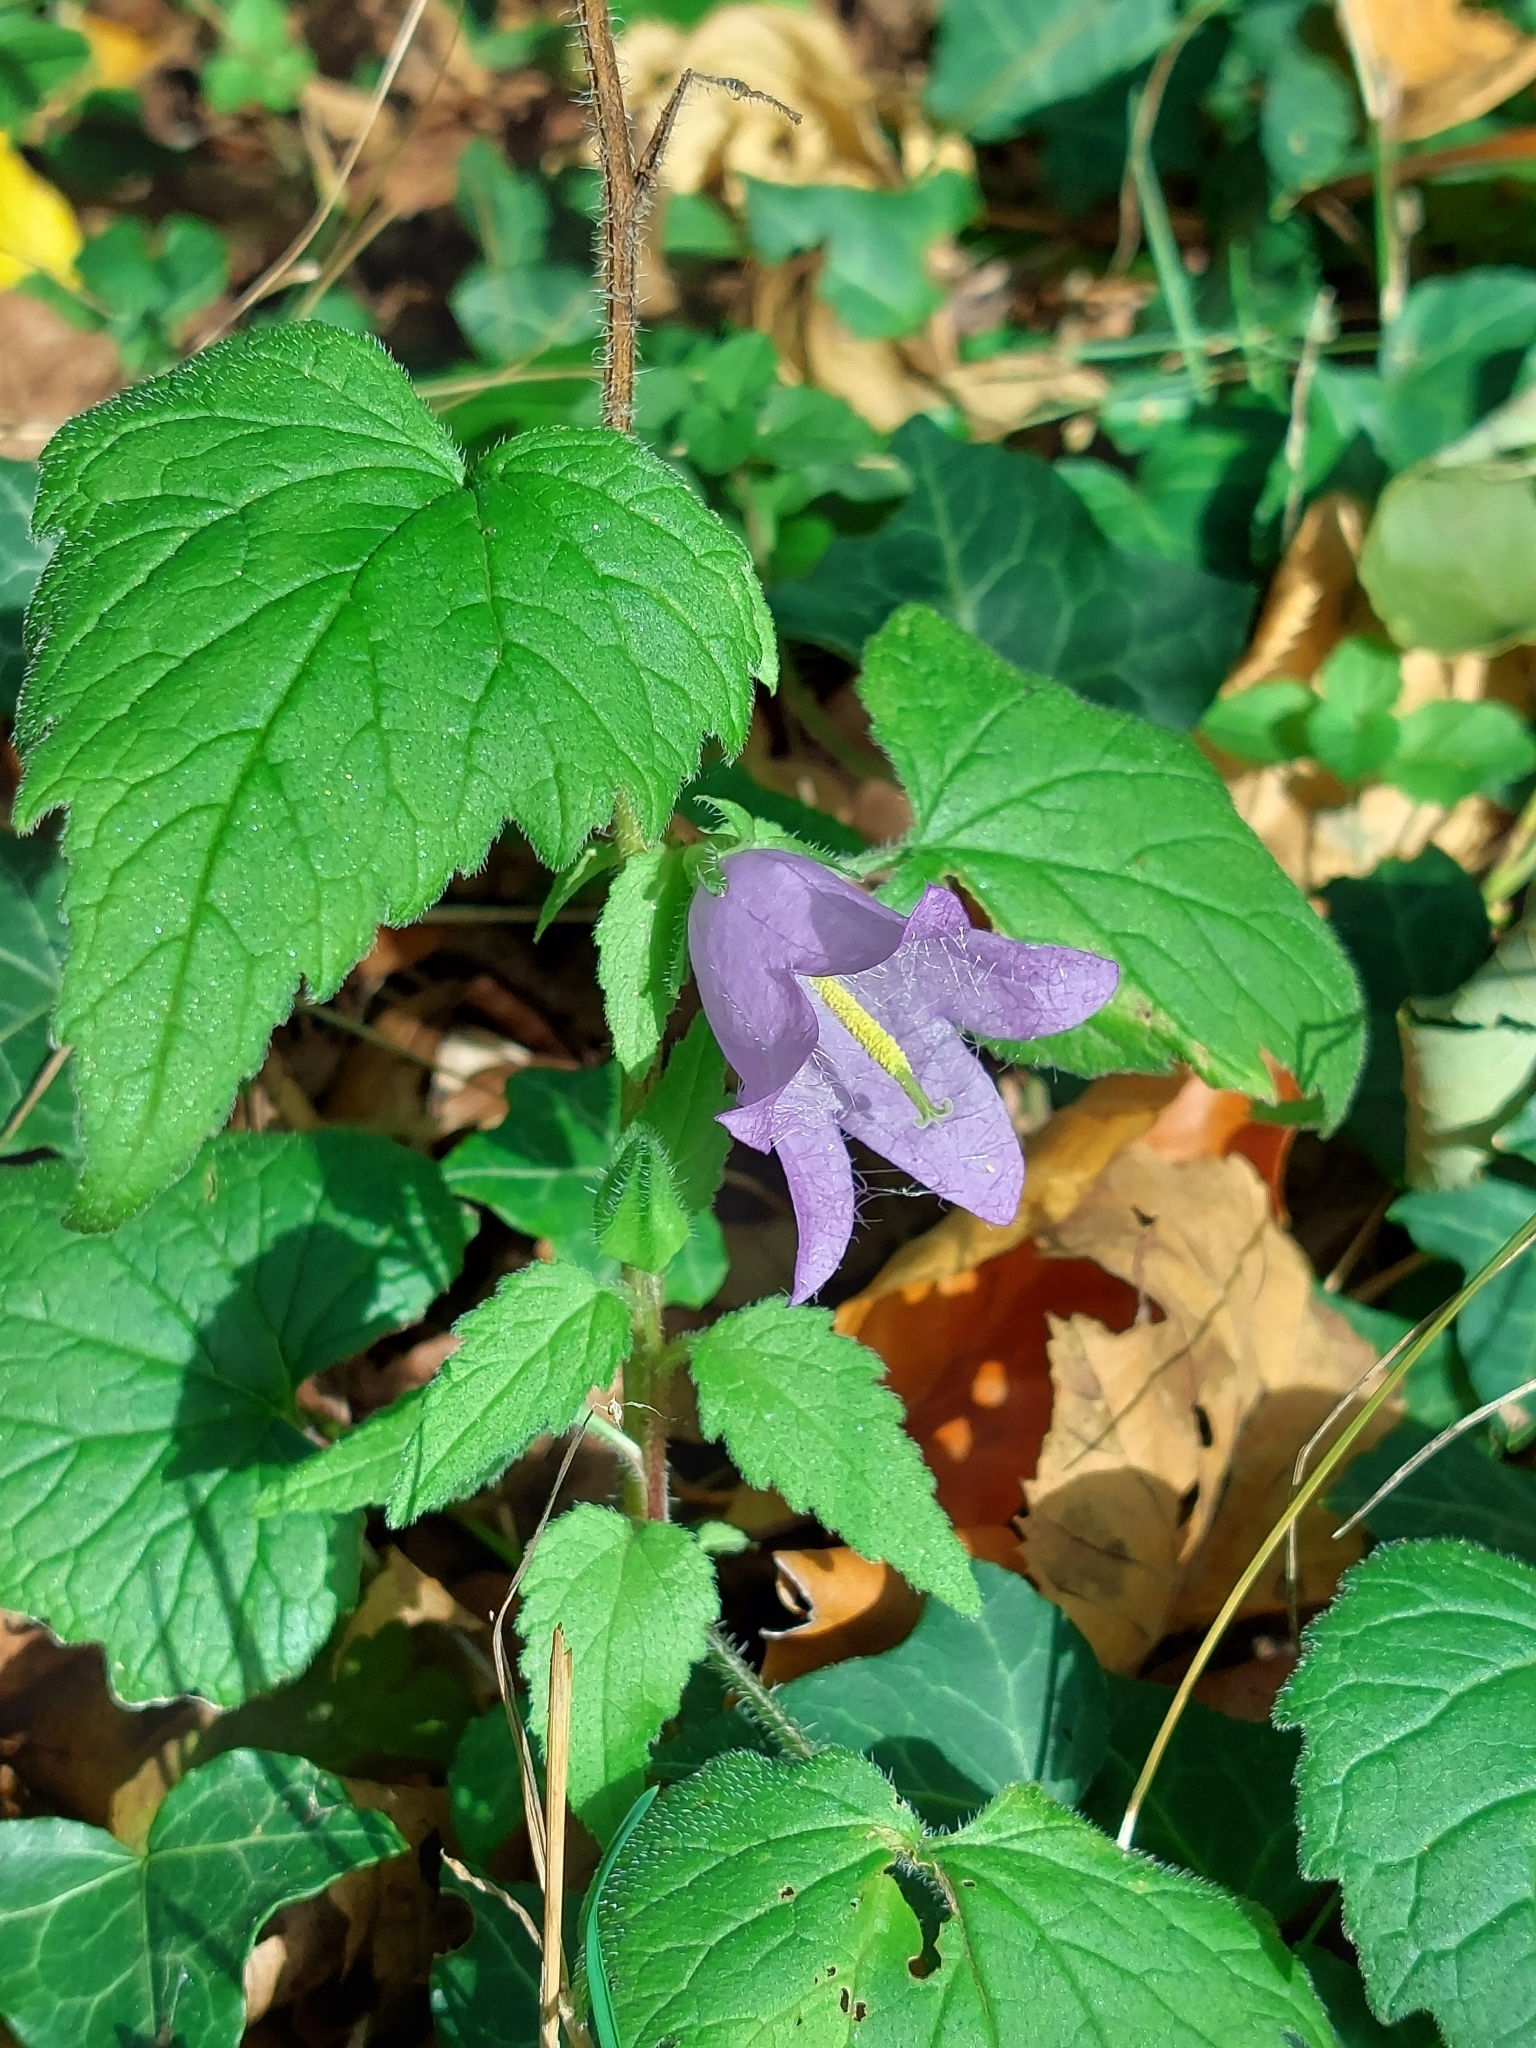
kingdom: Plantae
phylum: Tracheophyta
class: Magnoliopsida
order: Asterales
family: Campanulaceae
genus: Campanula
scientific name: Campanula trachelium
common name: Nettle-leaved bellflower
